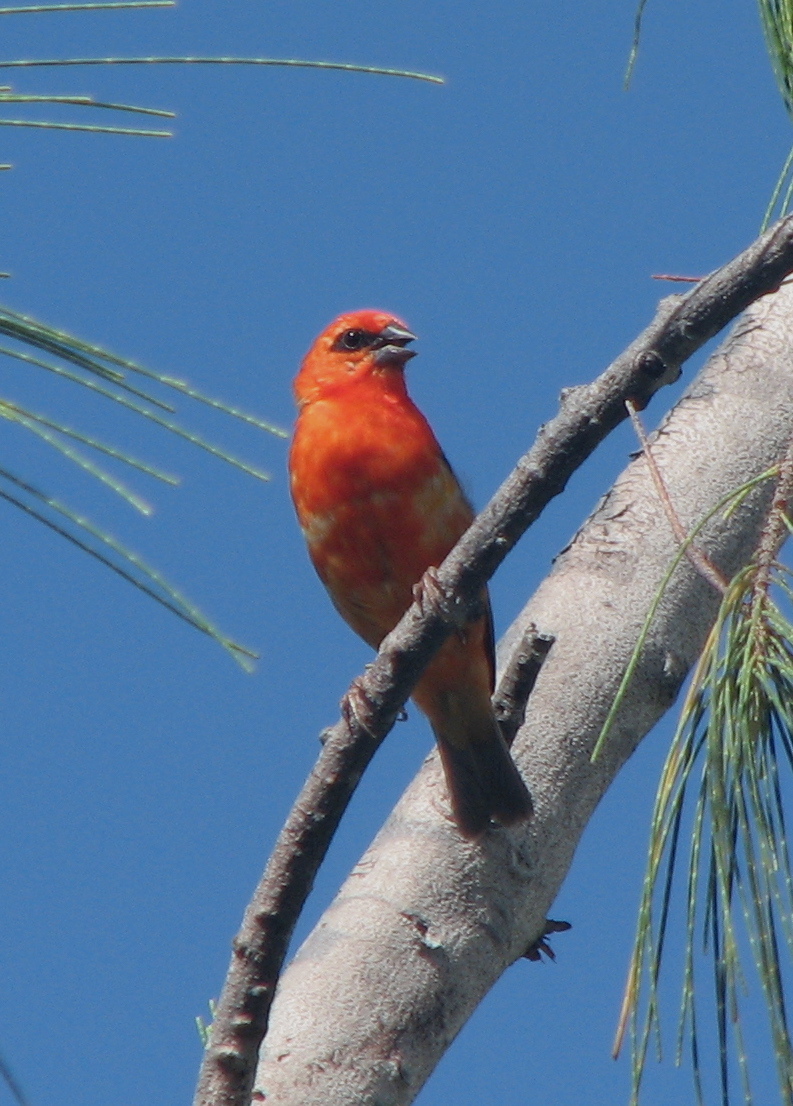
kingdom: Animalia
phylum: Chordata
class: Aves
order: Passeriformes
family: Ploceidae
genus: Foudia
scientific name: Foudia madagascariensis
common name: Red fody
